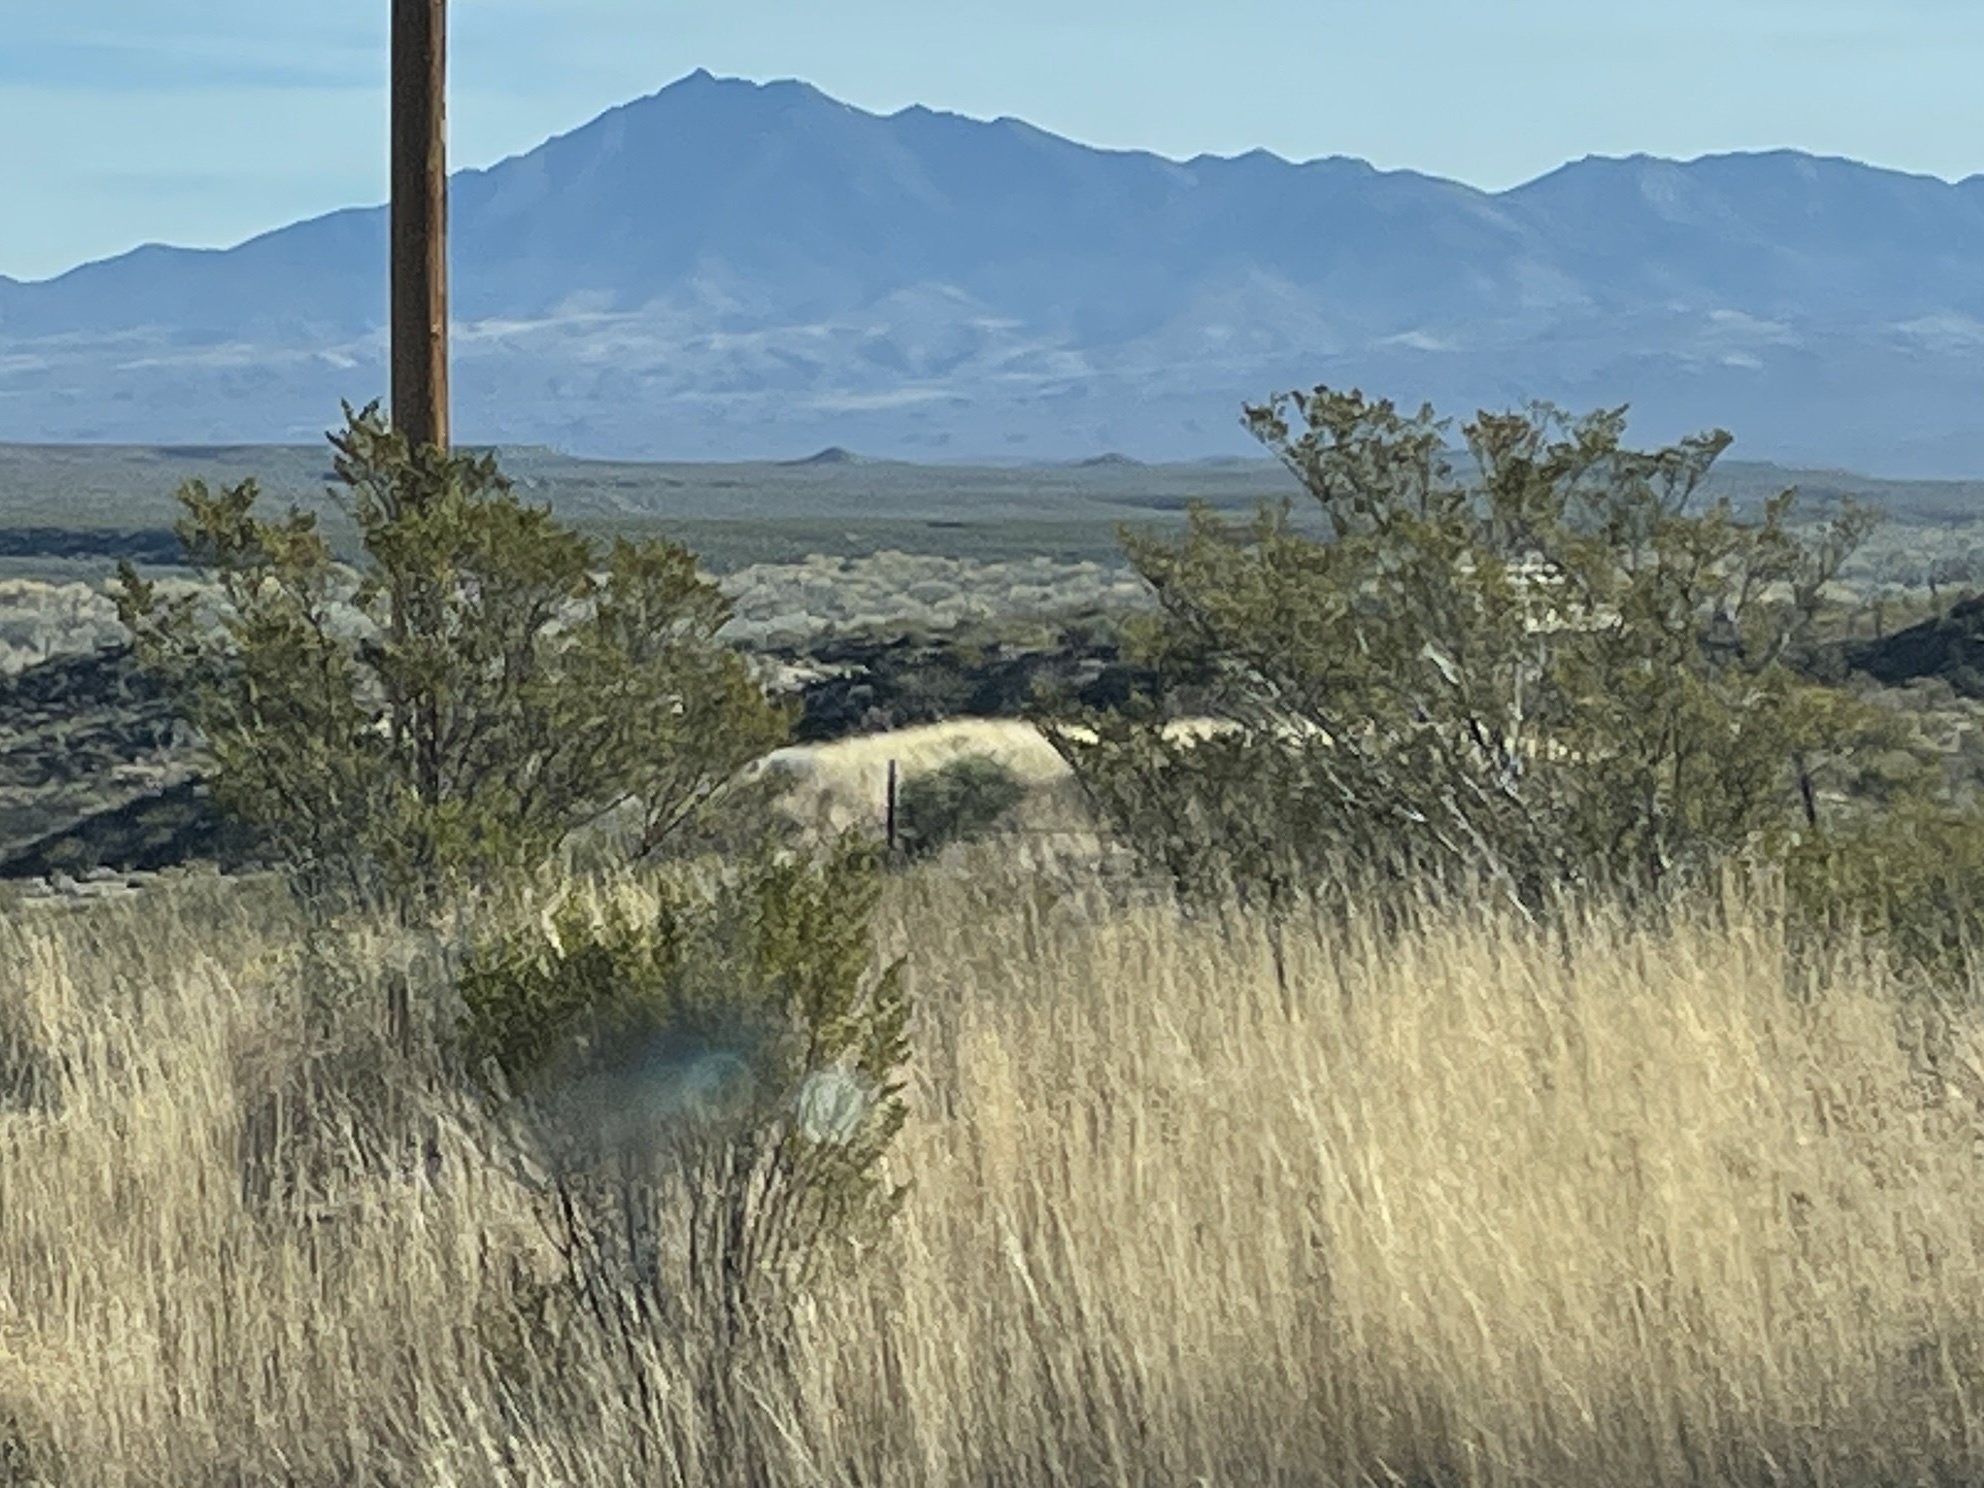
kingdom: Plantae
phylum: Tracheophyta
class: Magnoliopsida
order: Zygophyllales
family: Zygophyllaceae
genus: Larrea
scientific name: Larrea tridentata
